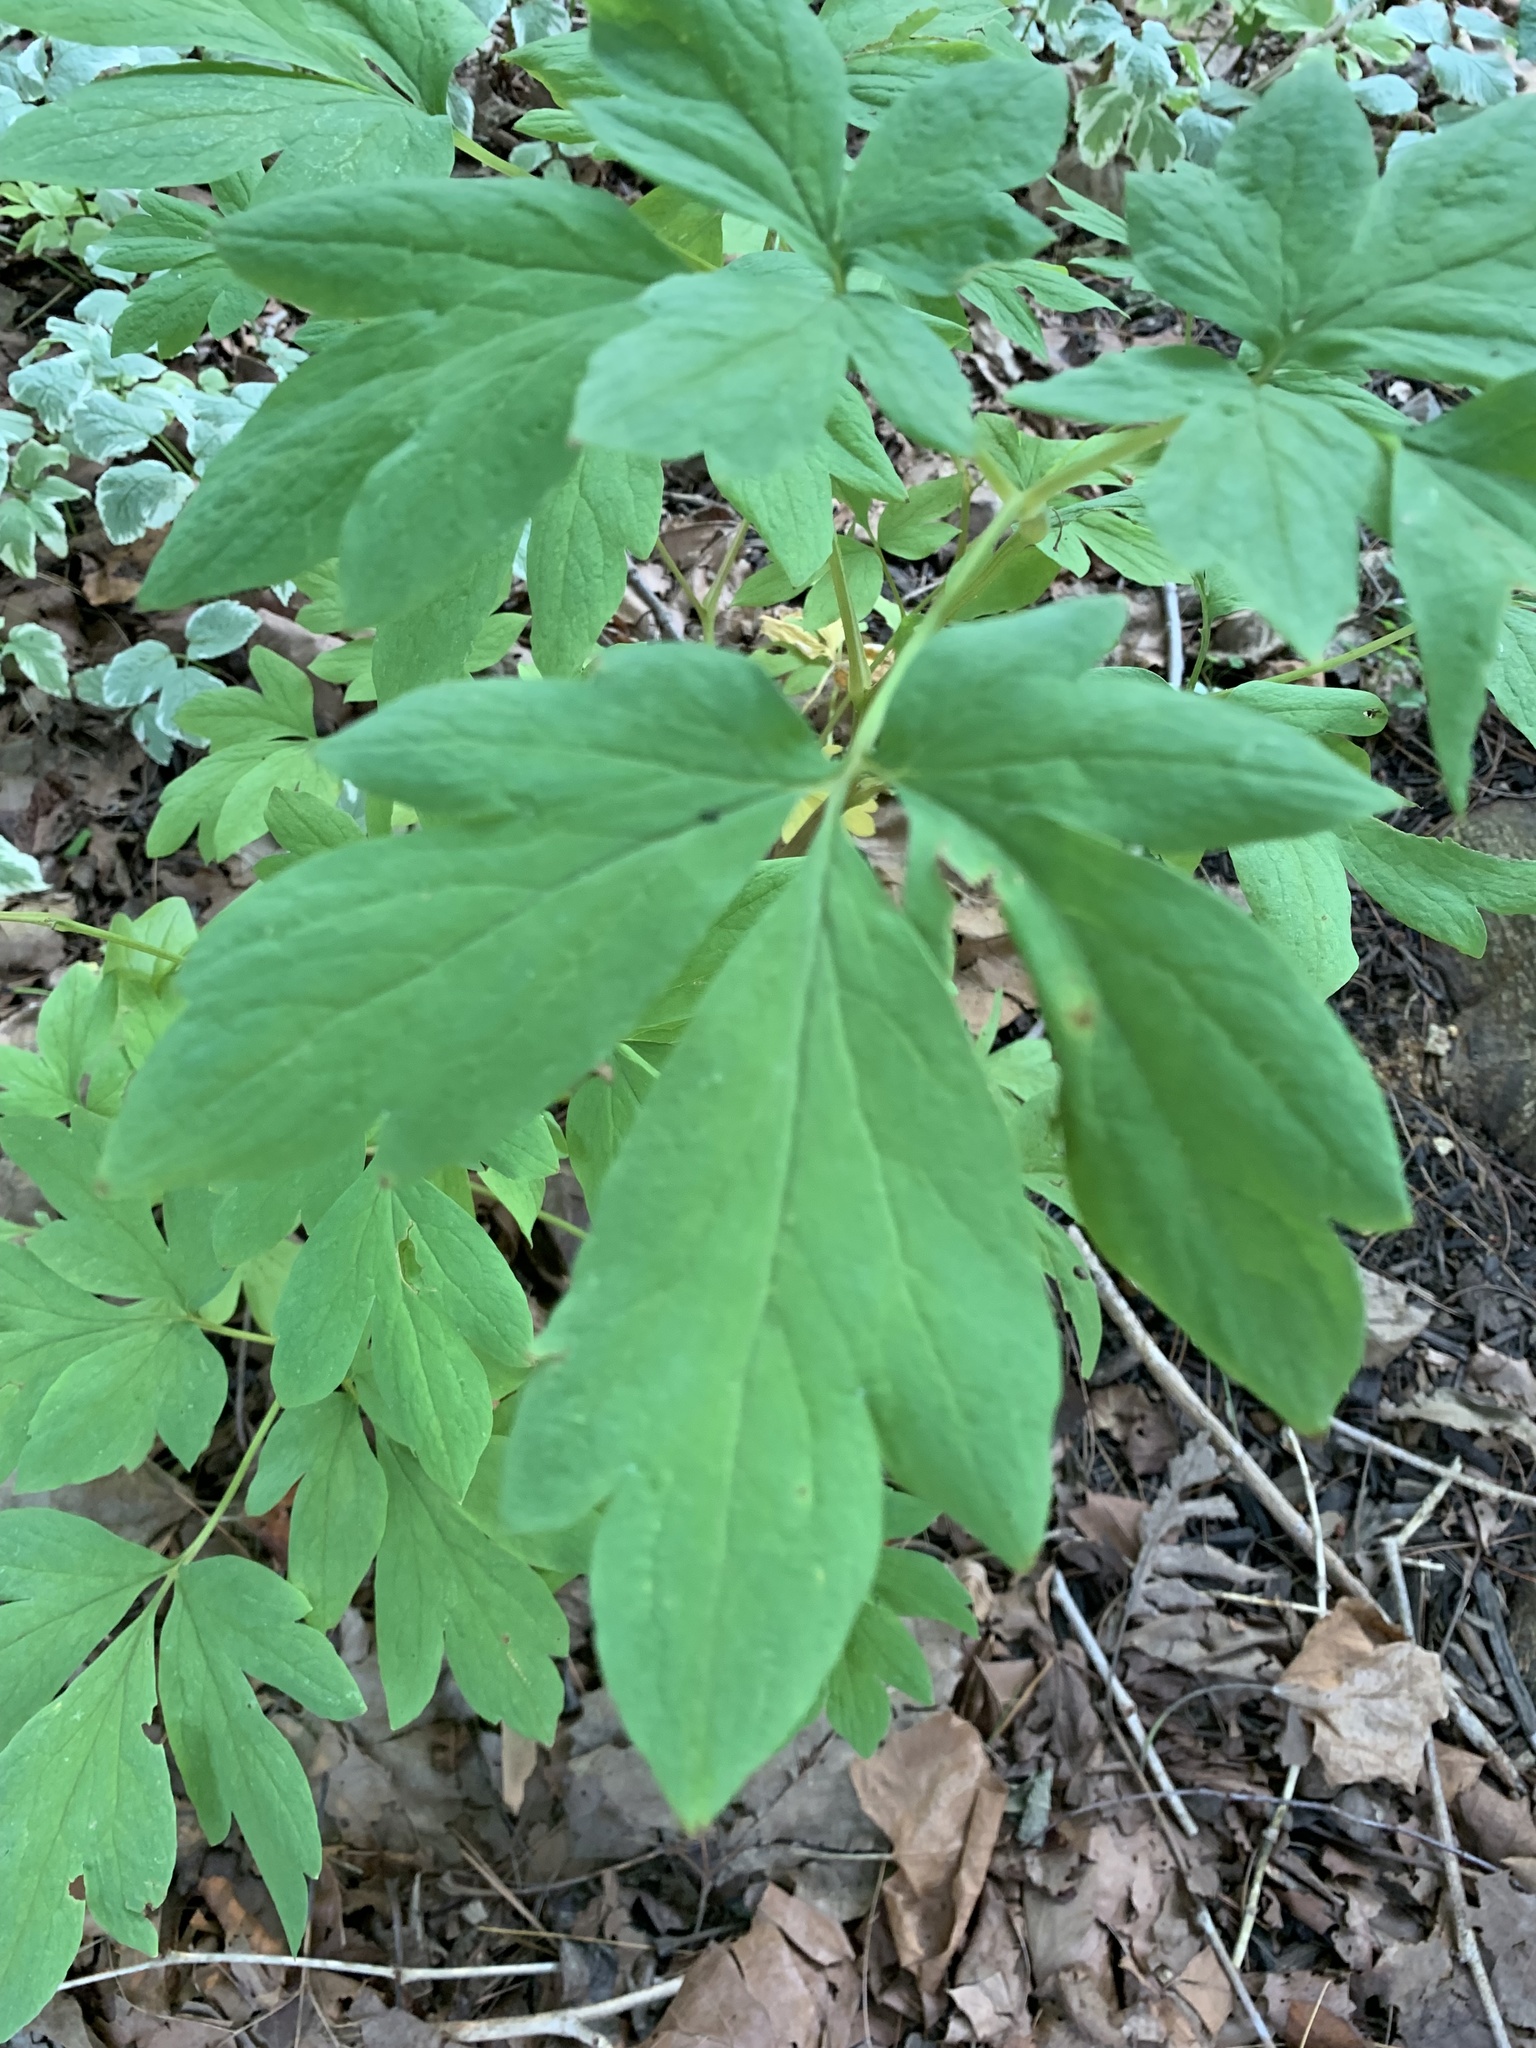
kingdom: Plantae
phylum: Tracheophyta
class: Magnoliopsida
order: Ranunculales
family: Papaveraceae
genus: Lamprocapnos
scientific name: Lamprocapnos spectabilis
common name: Asian bleeding-heart
